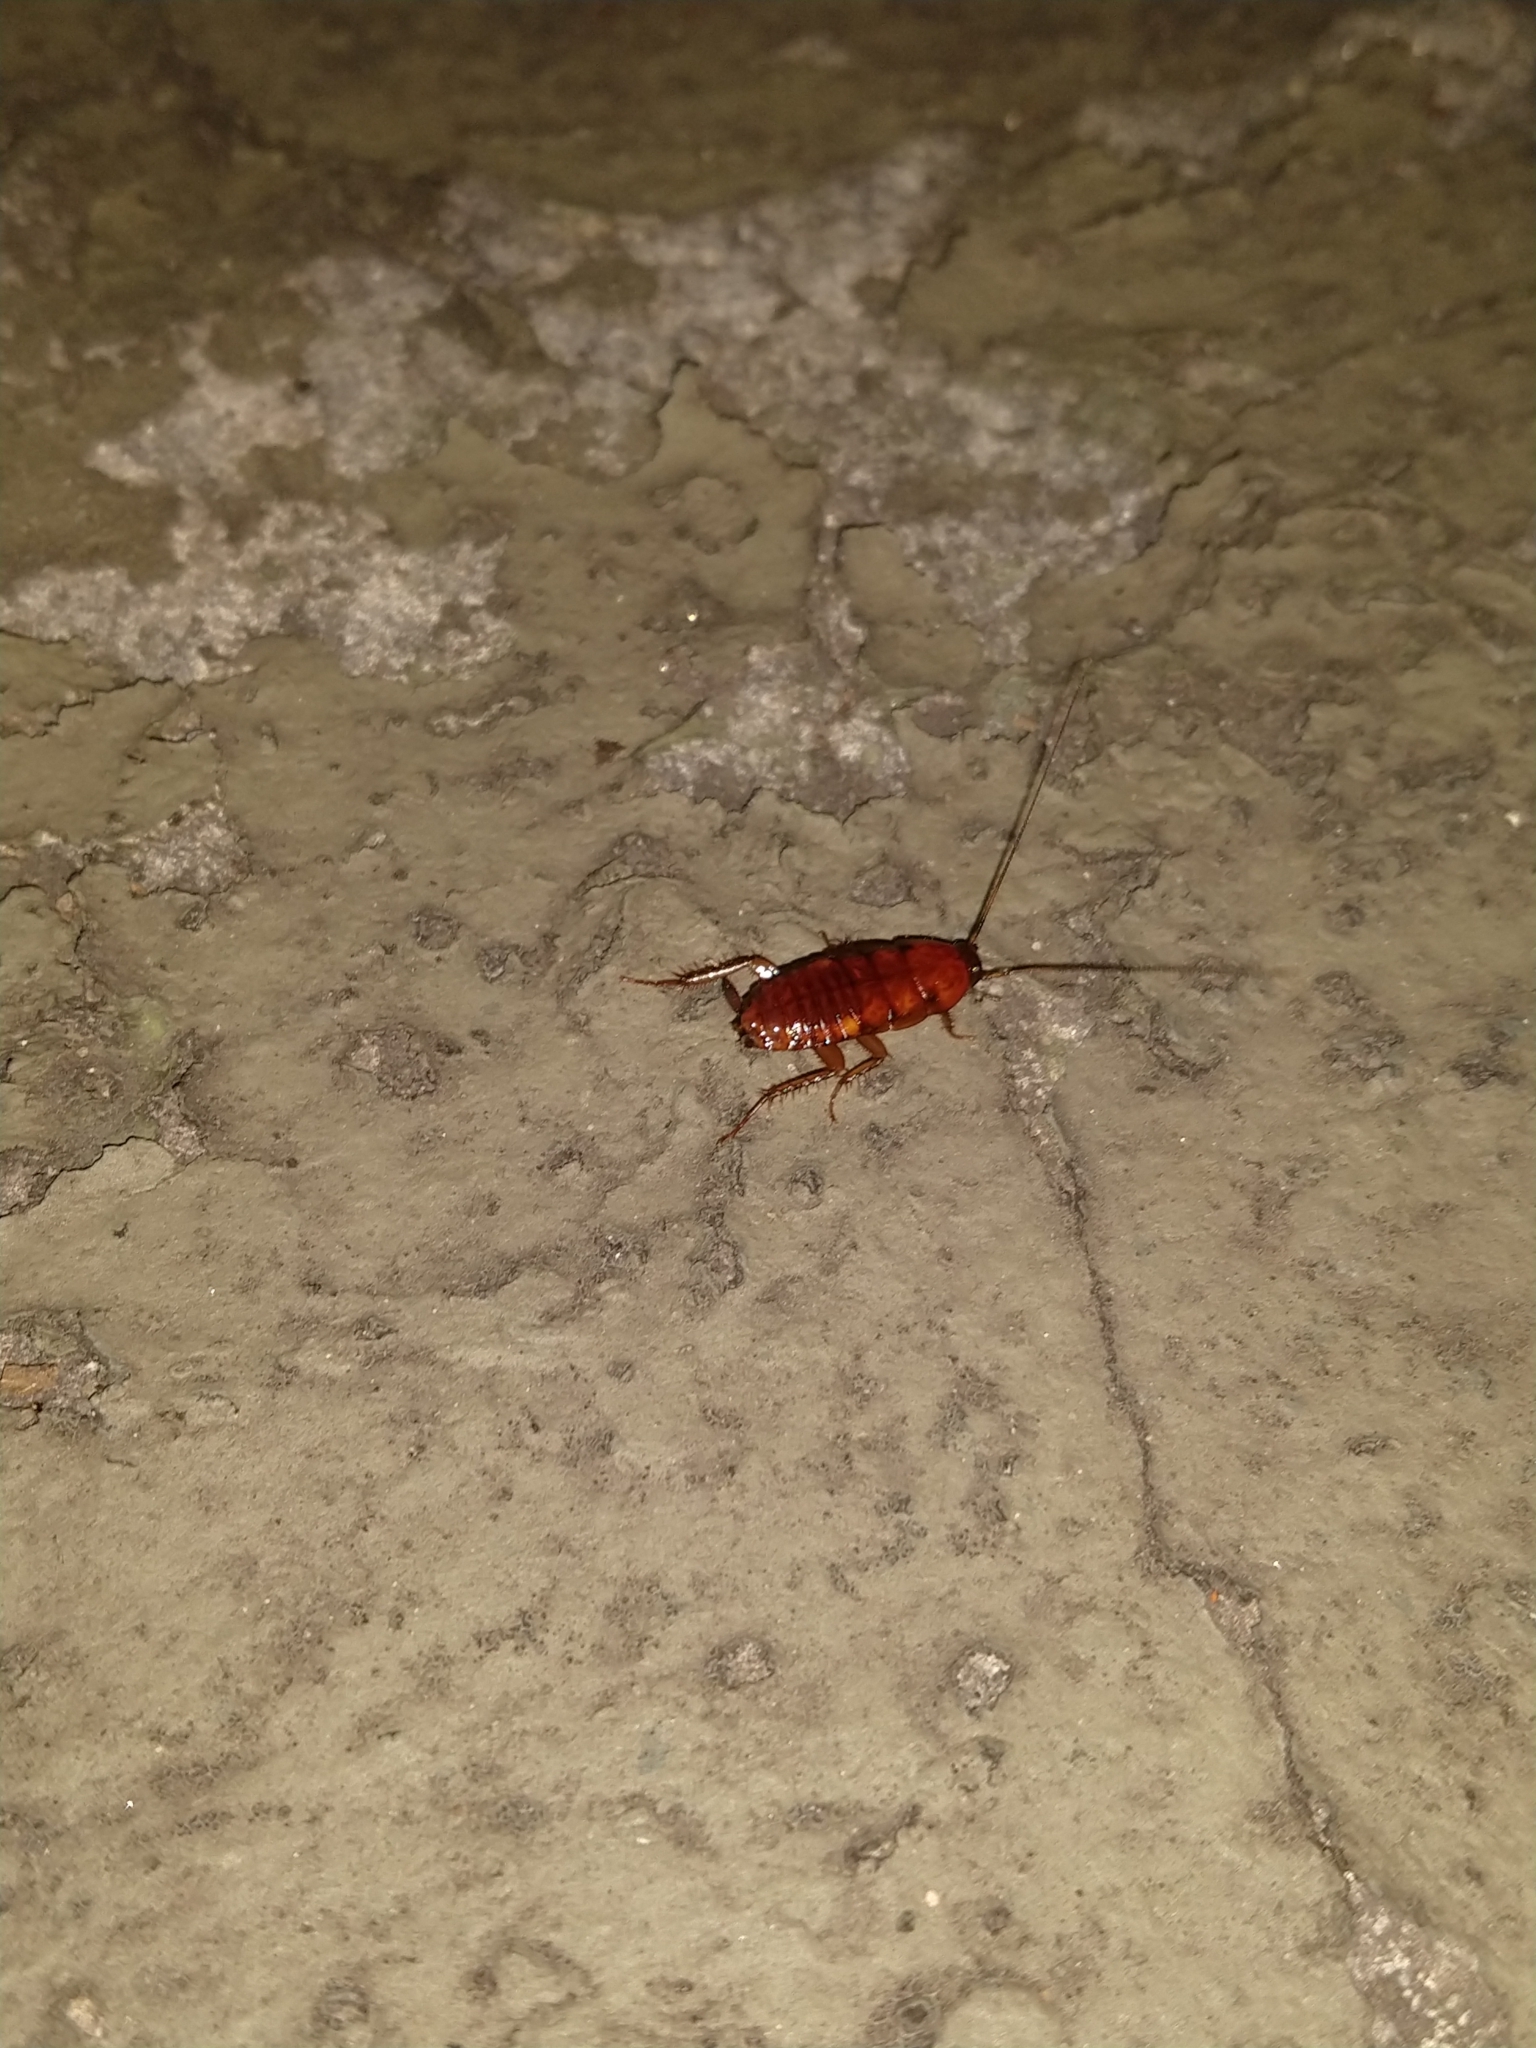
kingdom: Animalia
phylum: Arthropoda
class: Insecta
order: Blattodea
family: Blattidae
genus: Periplaneta
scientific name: Periplaneta americana
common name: American cockroach
